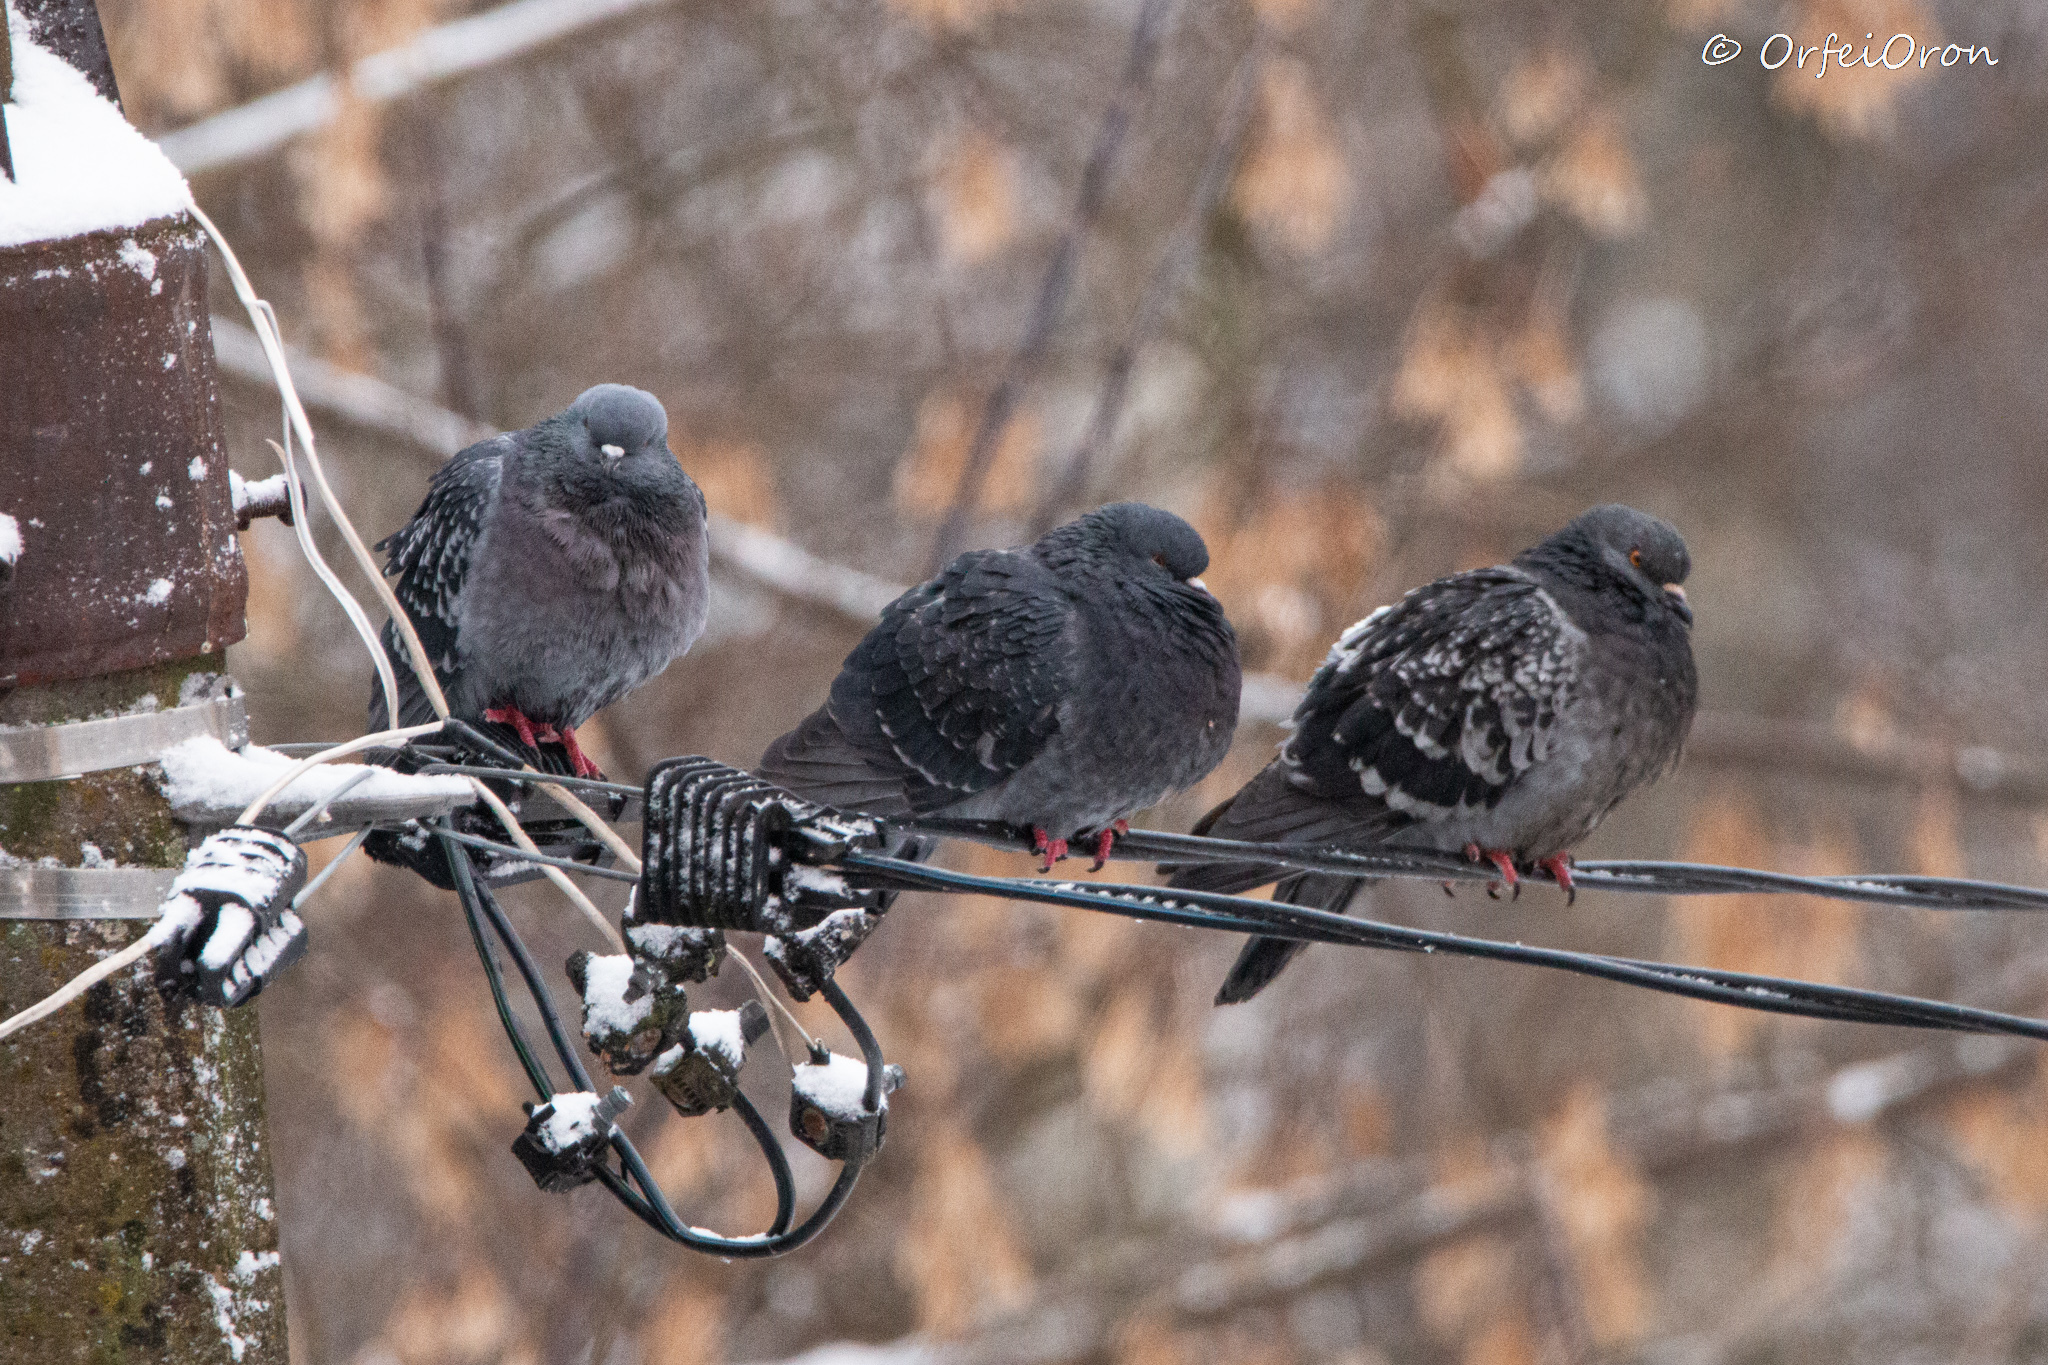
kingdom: Animalia
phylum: Chordata
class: Aves
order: Columbiformes
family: Columbidae
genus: Columba
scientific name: Columba livia
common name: Rock pigeon
